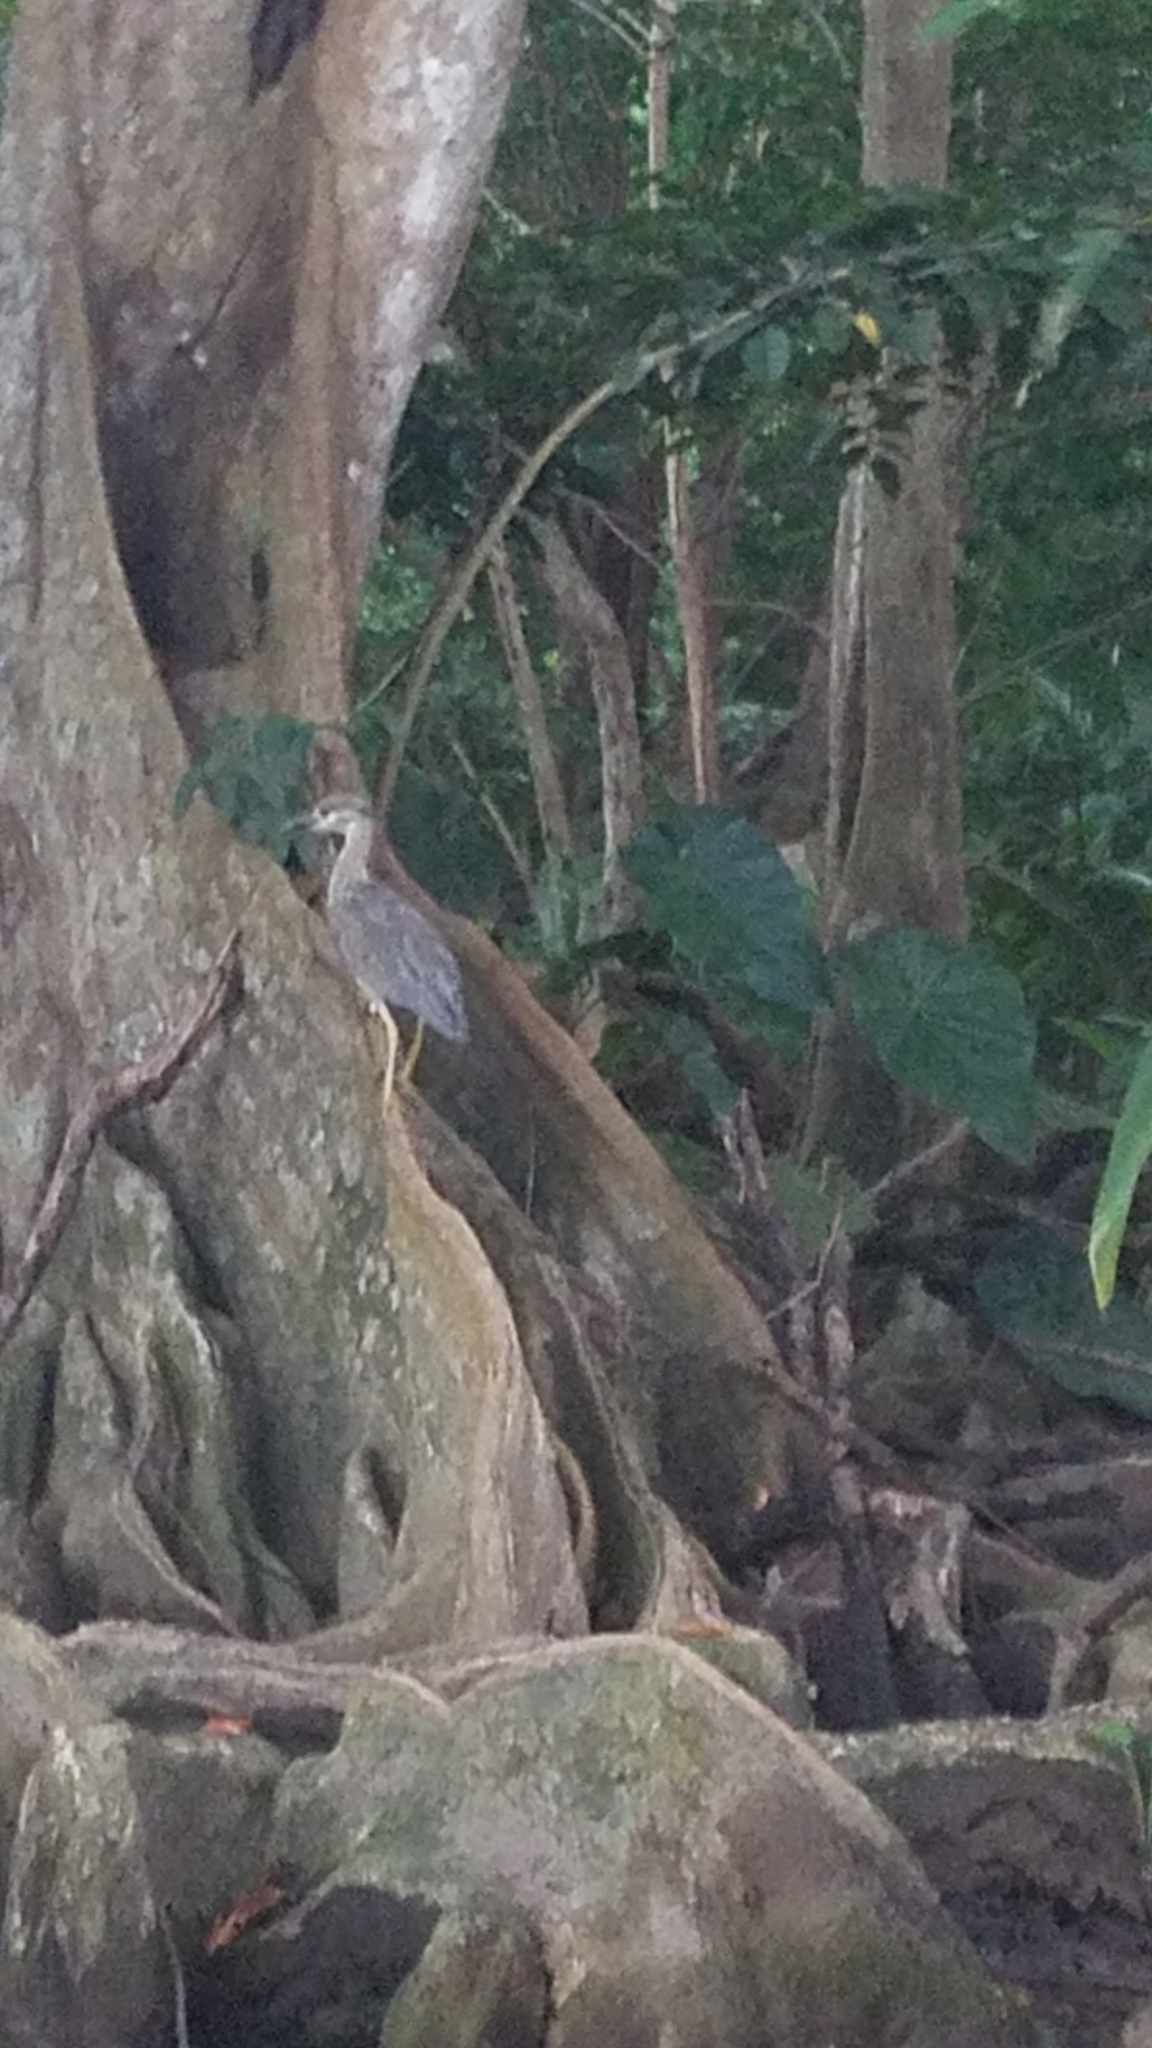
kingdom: Animalia
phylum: Chordata
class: Aves
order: Pelecaniformes
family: Ardeidae
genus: Nyctanassa
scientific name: Nyctanassa violacea
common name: Yellow-crowned night heron
